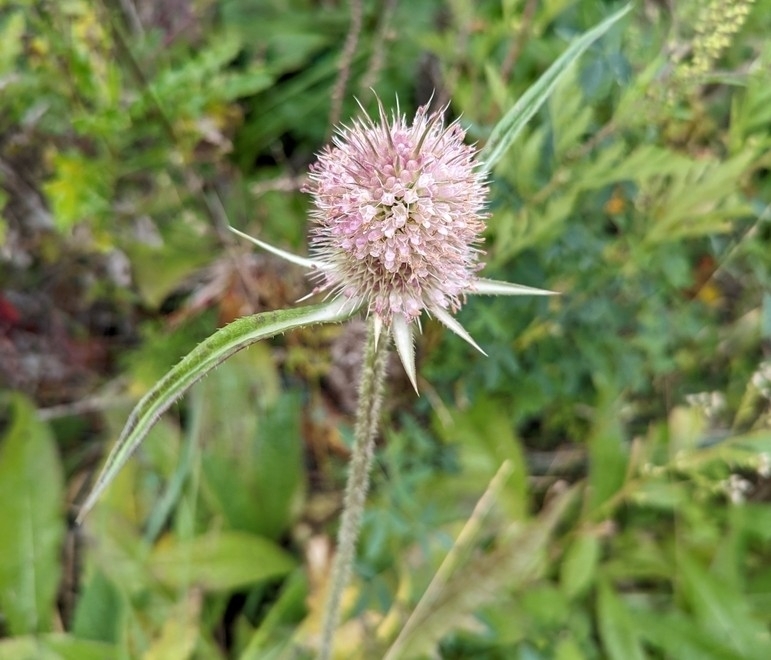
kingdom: Plantae
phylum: Tracheophyta
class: Magnoliopsida
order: Dipsacales
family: Caprifoliaceae
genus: Dipsacus
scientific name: Dipsacus laciniatus
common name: Cut-leaved teasel
